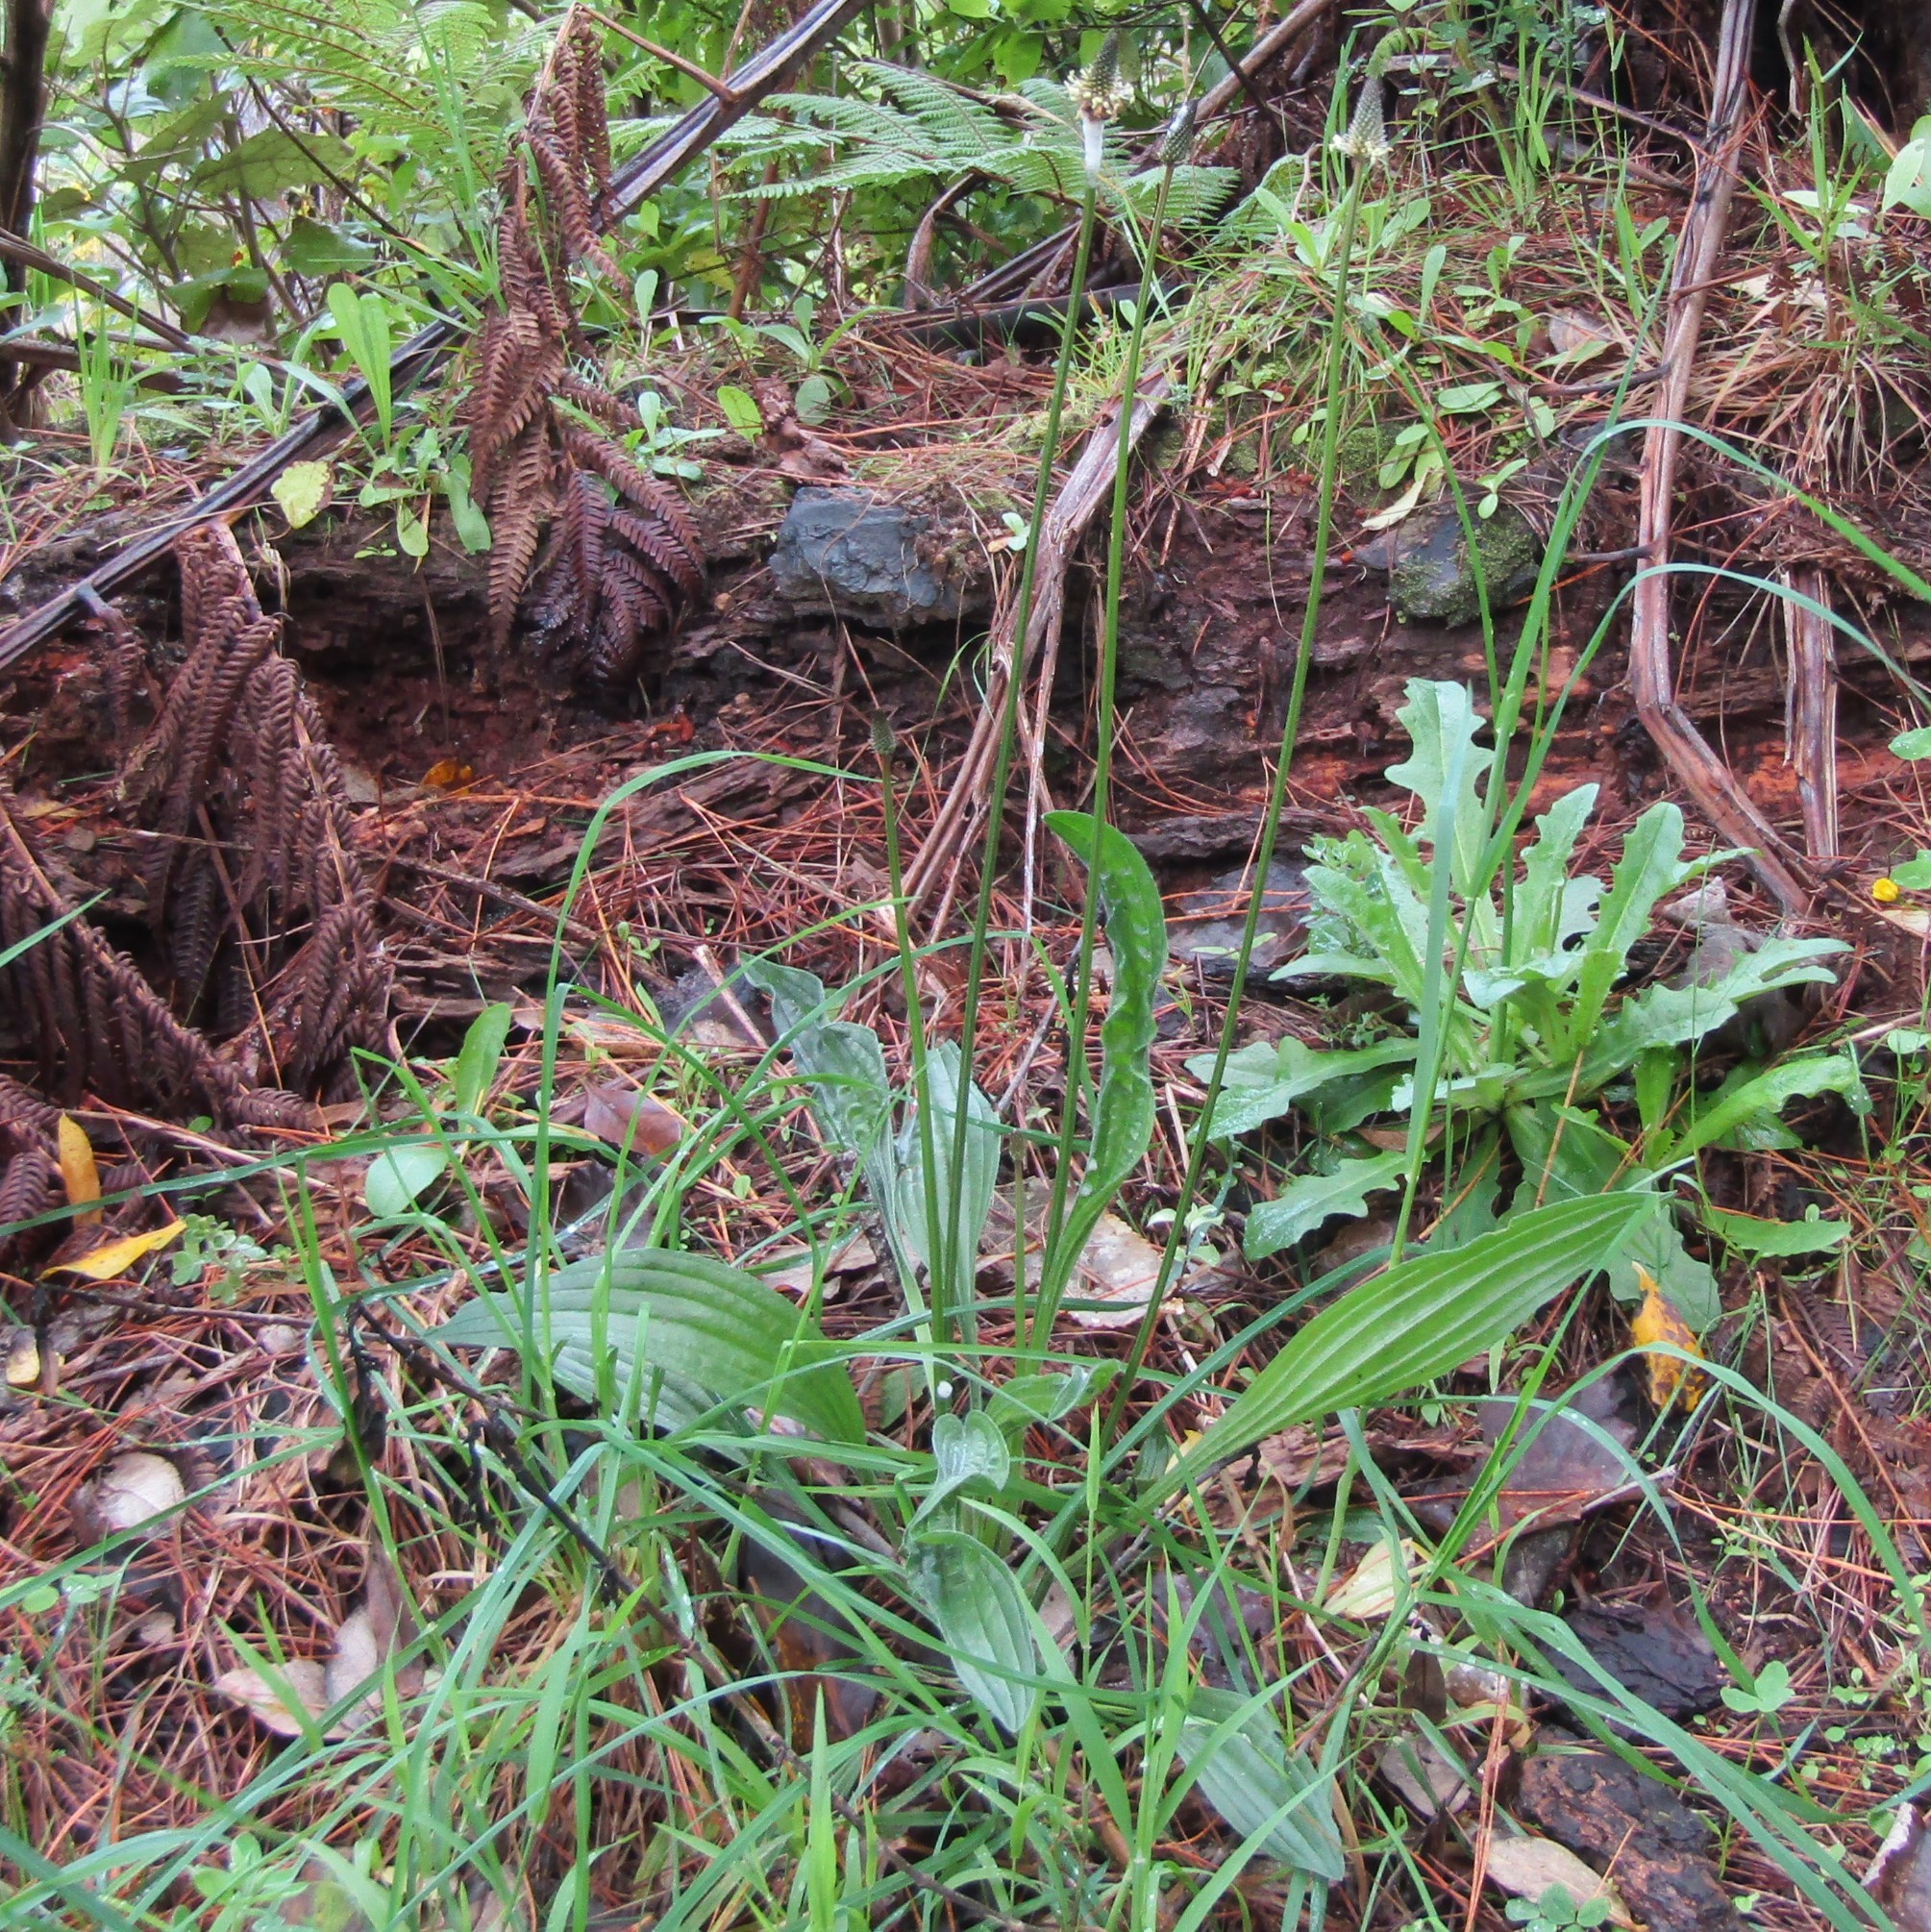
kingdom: Plantae
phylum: Tracheophyta
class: Magnoliopsida
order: Lamiales
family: Plantaginaceae
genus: Plantago
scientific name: Plantago lanceolata
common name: Ribwort plantain
